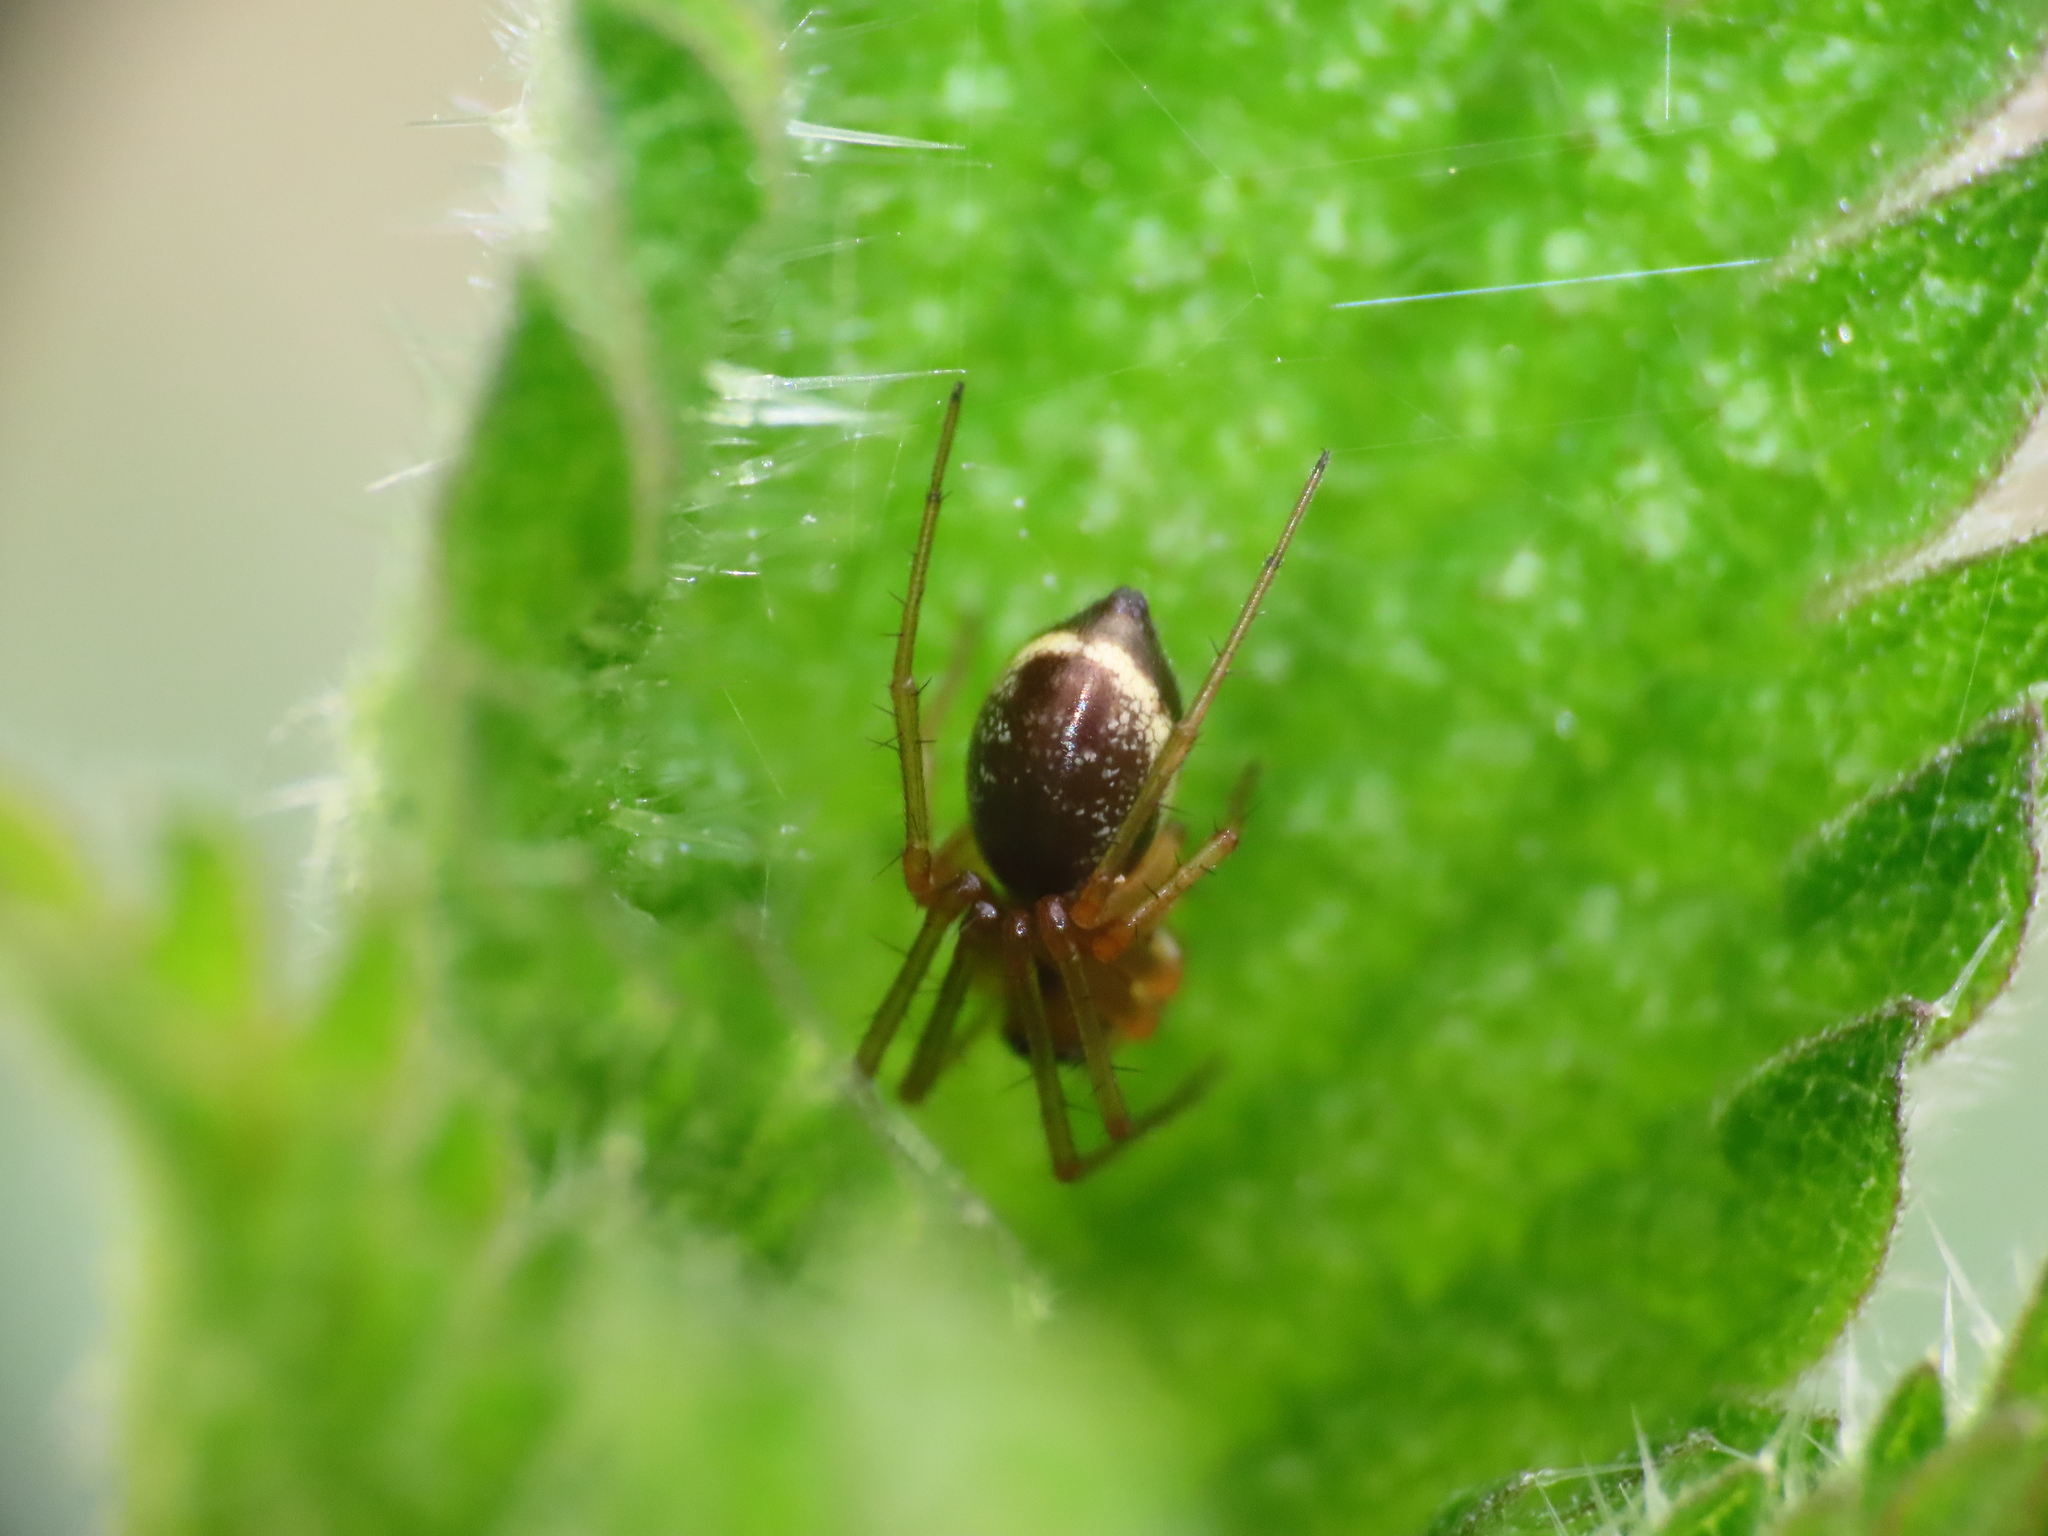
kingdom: Animalia
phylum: Arthropoda
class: Arachnida
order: Araneae
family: Linyphiidae
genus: Linyphia
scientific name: Linyphia hortensis
